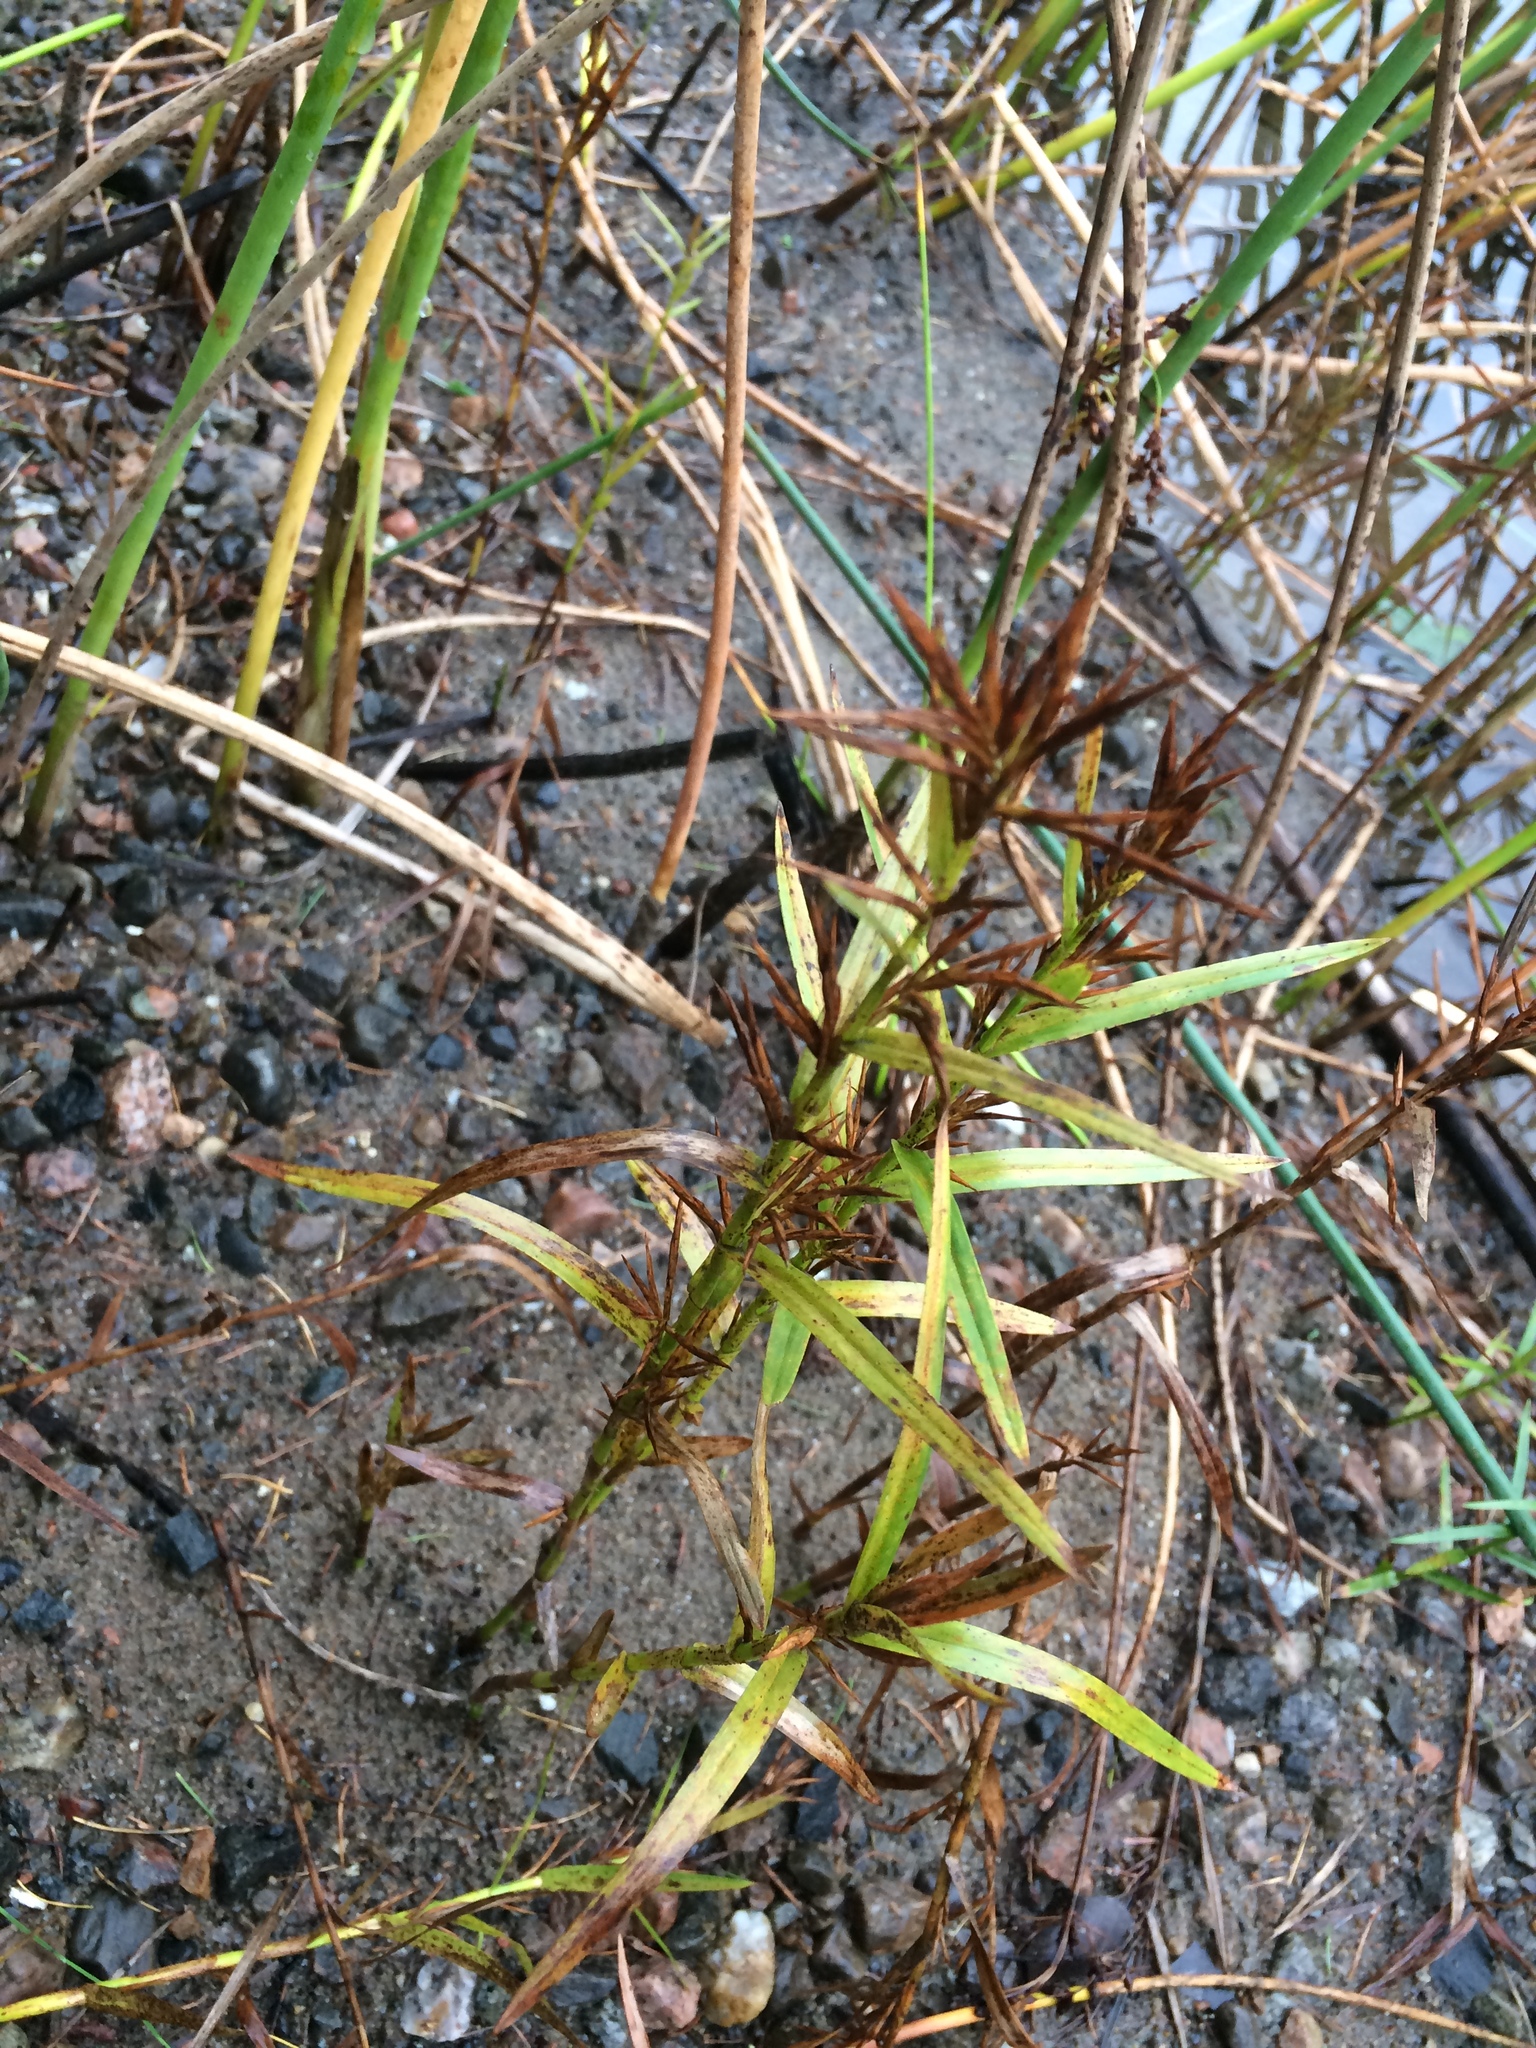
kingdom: Plantae
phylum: Tracheophyta
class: Liliopsida
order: Poales
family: Cyperaceae
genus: Dulichium
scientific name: Dulichium arundinaceum
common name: Three-way sedge
